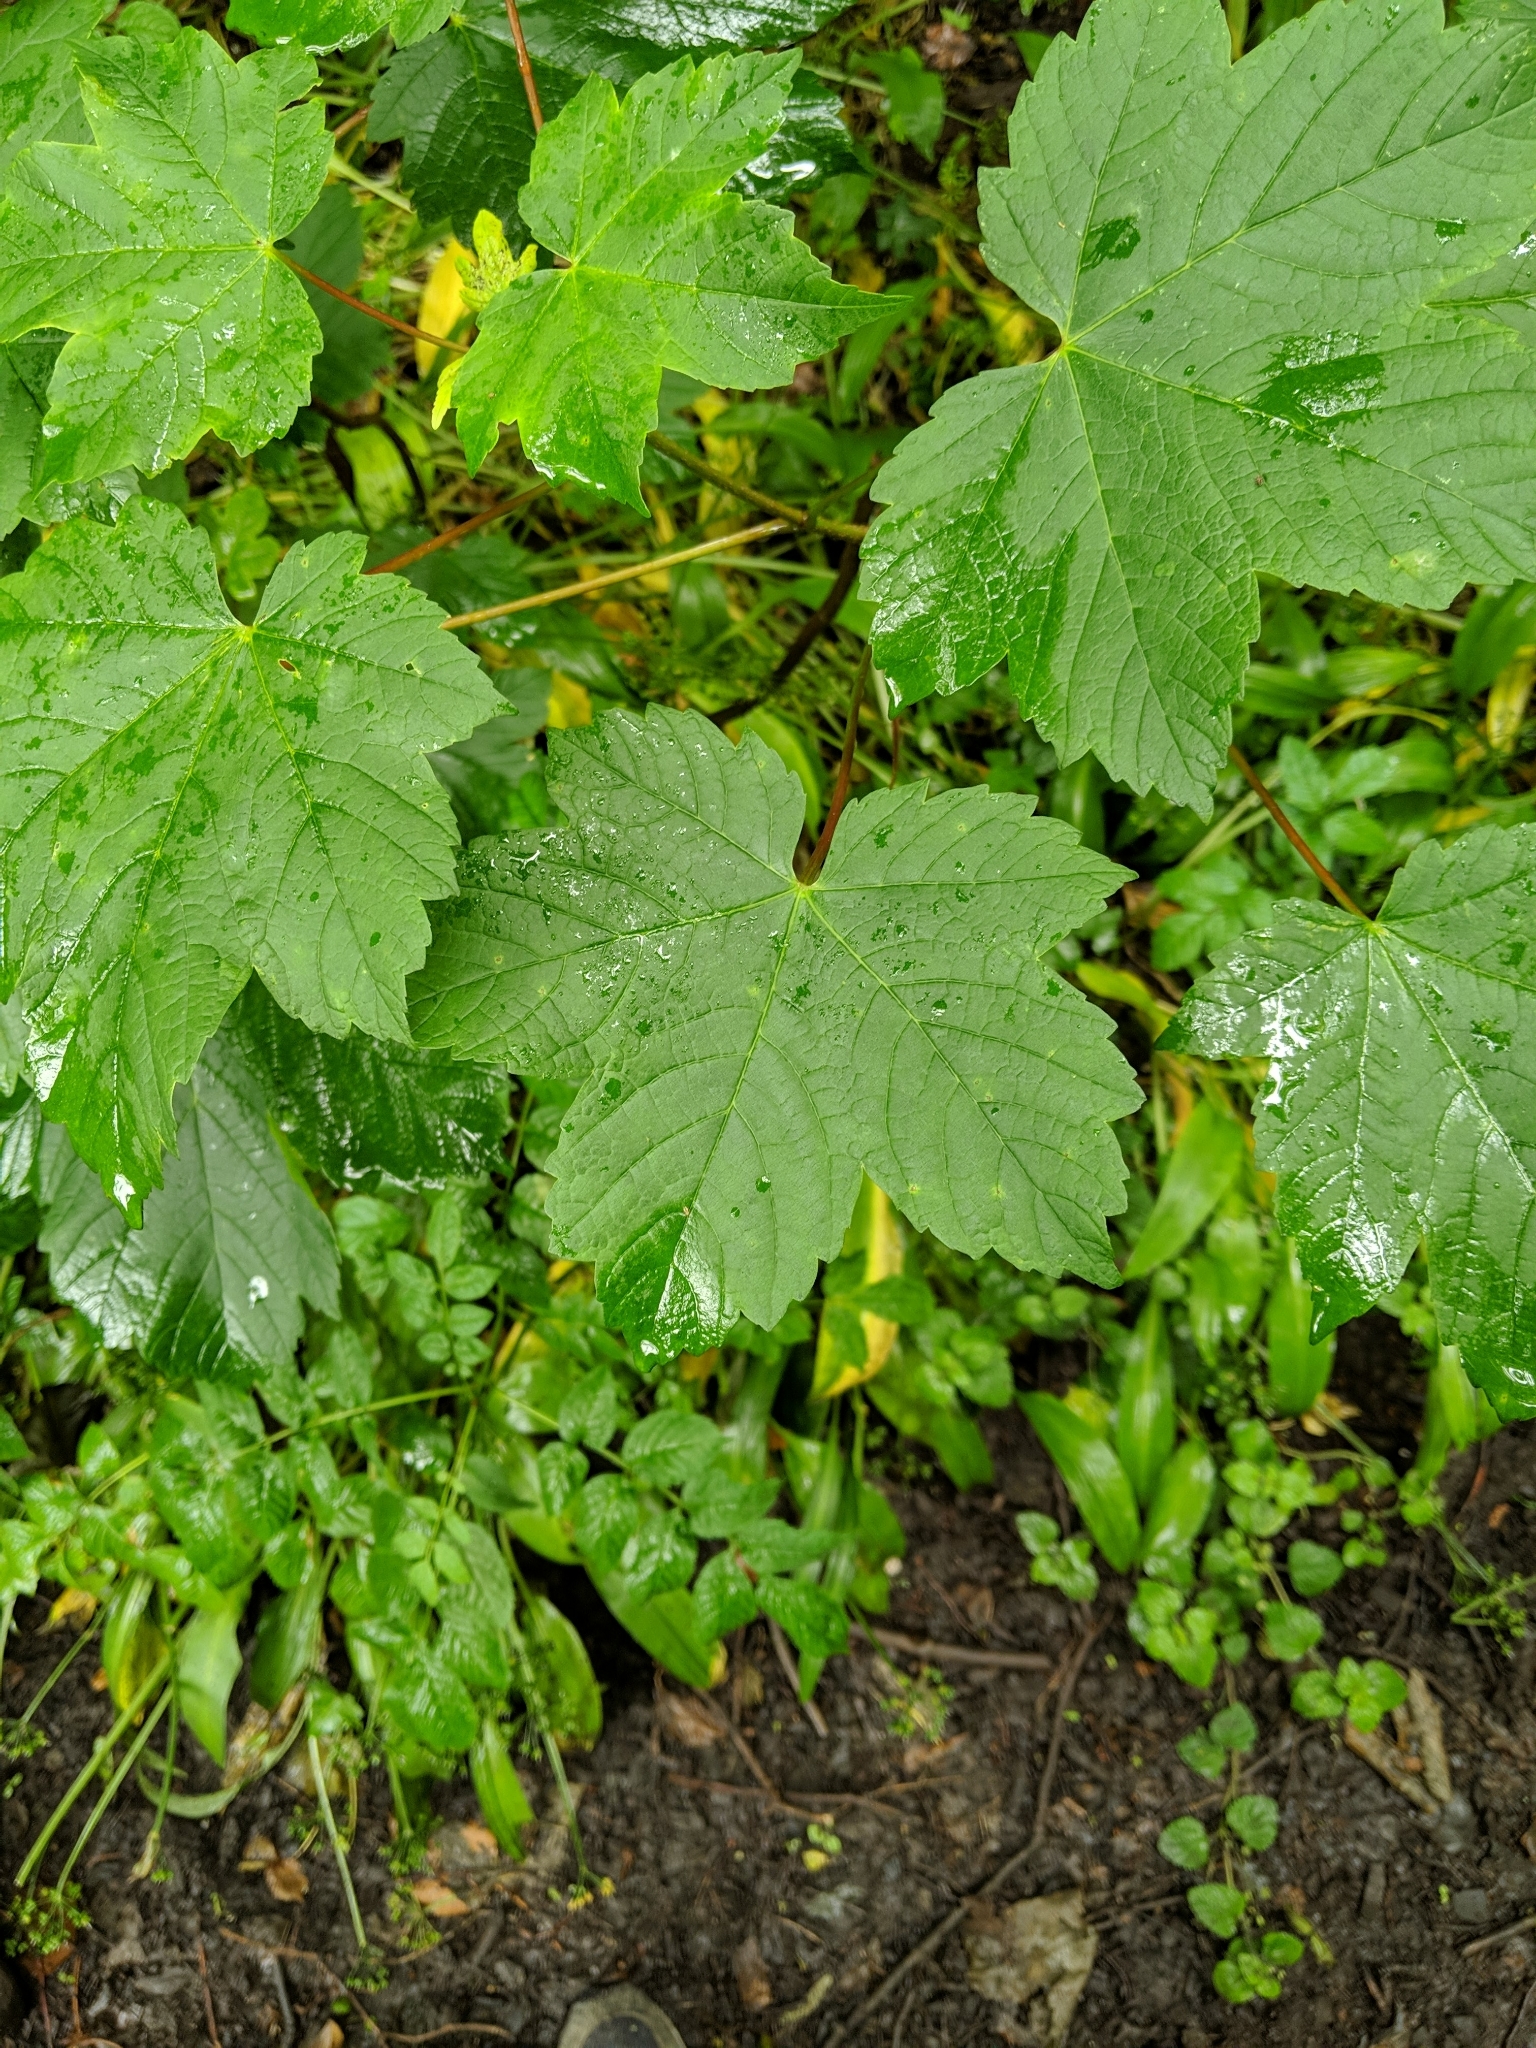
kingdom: Plantae
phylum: Tracheophyta
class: Magnoliopsida
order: Sapindales
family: Sapindaceae
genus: Acer
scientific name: Acer pseudoplatanus
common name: Sycamore
